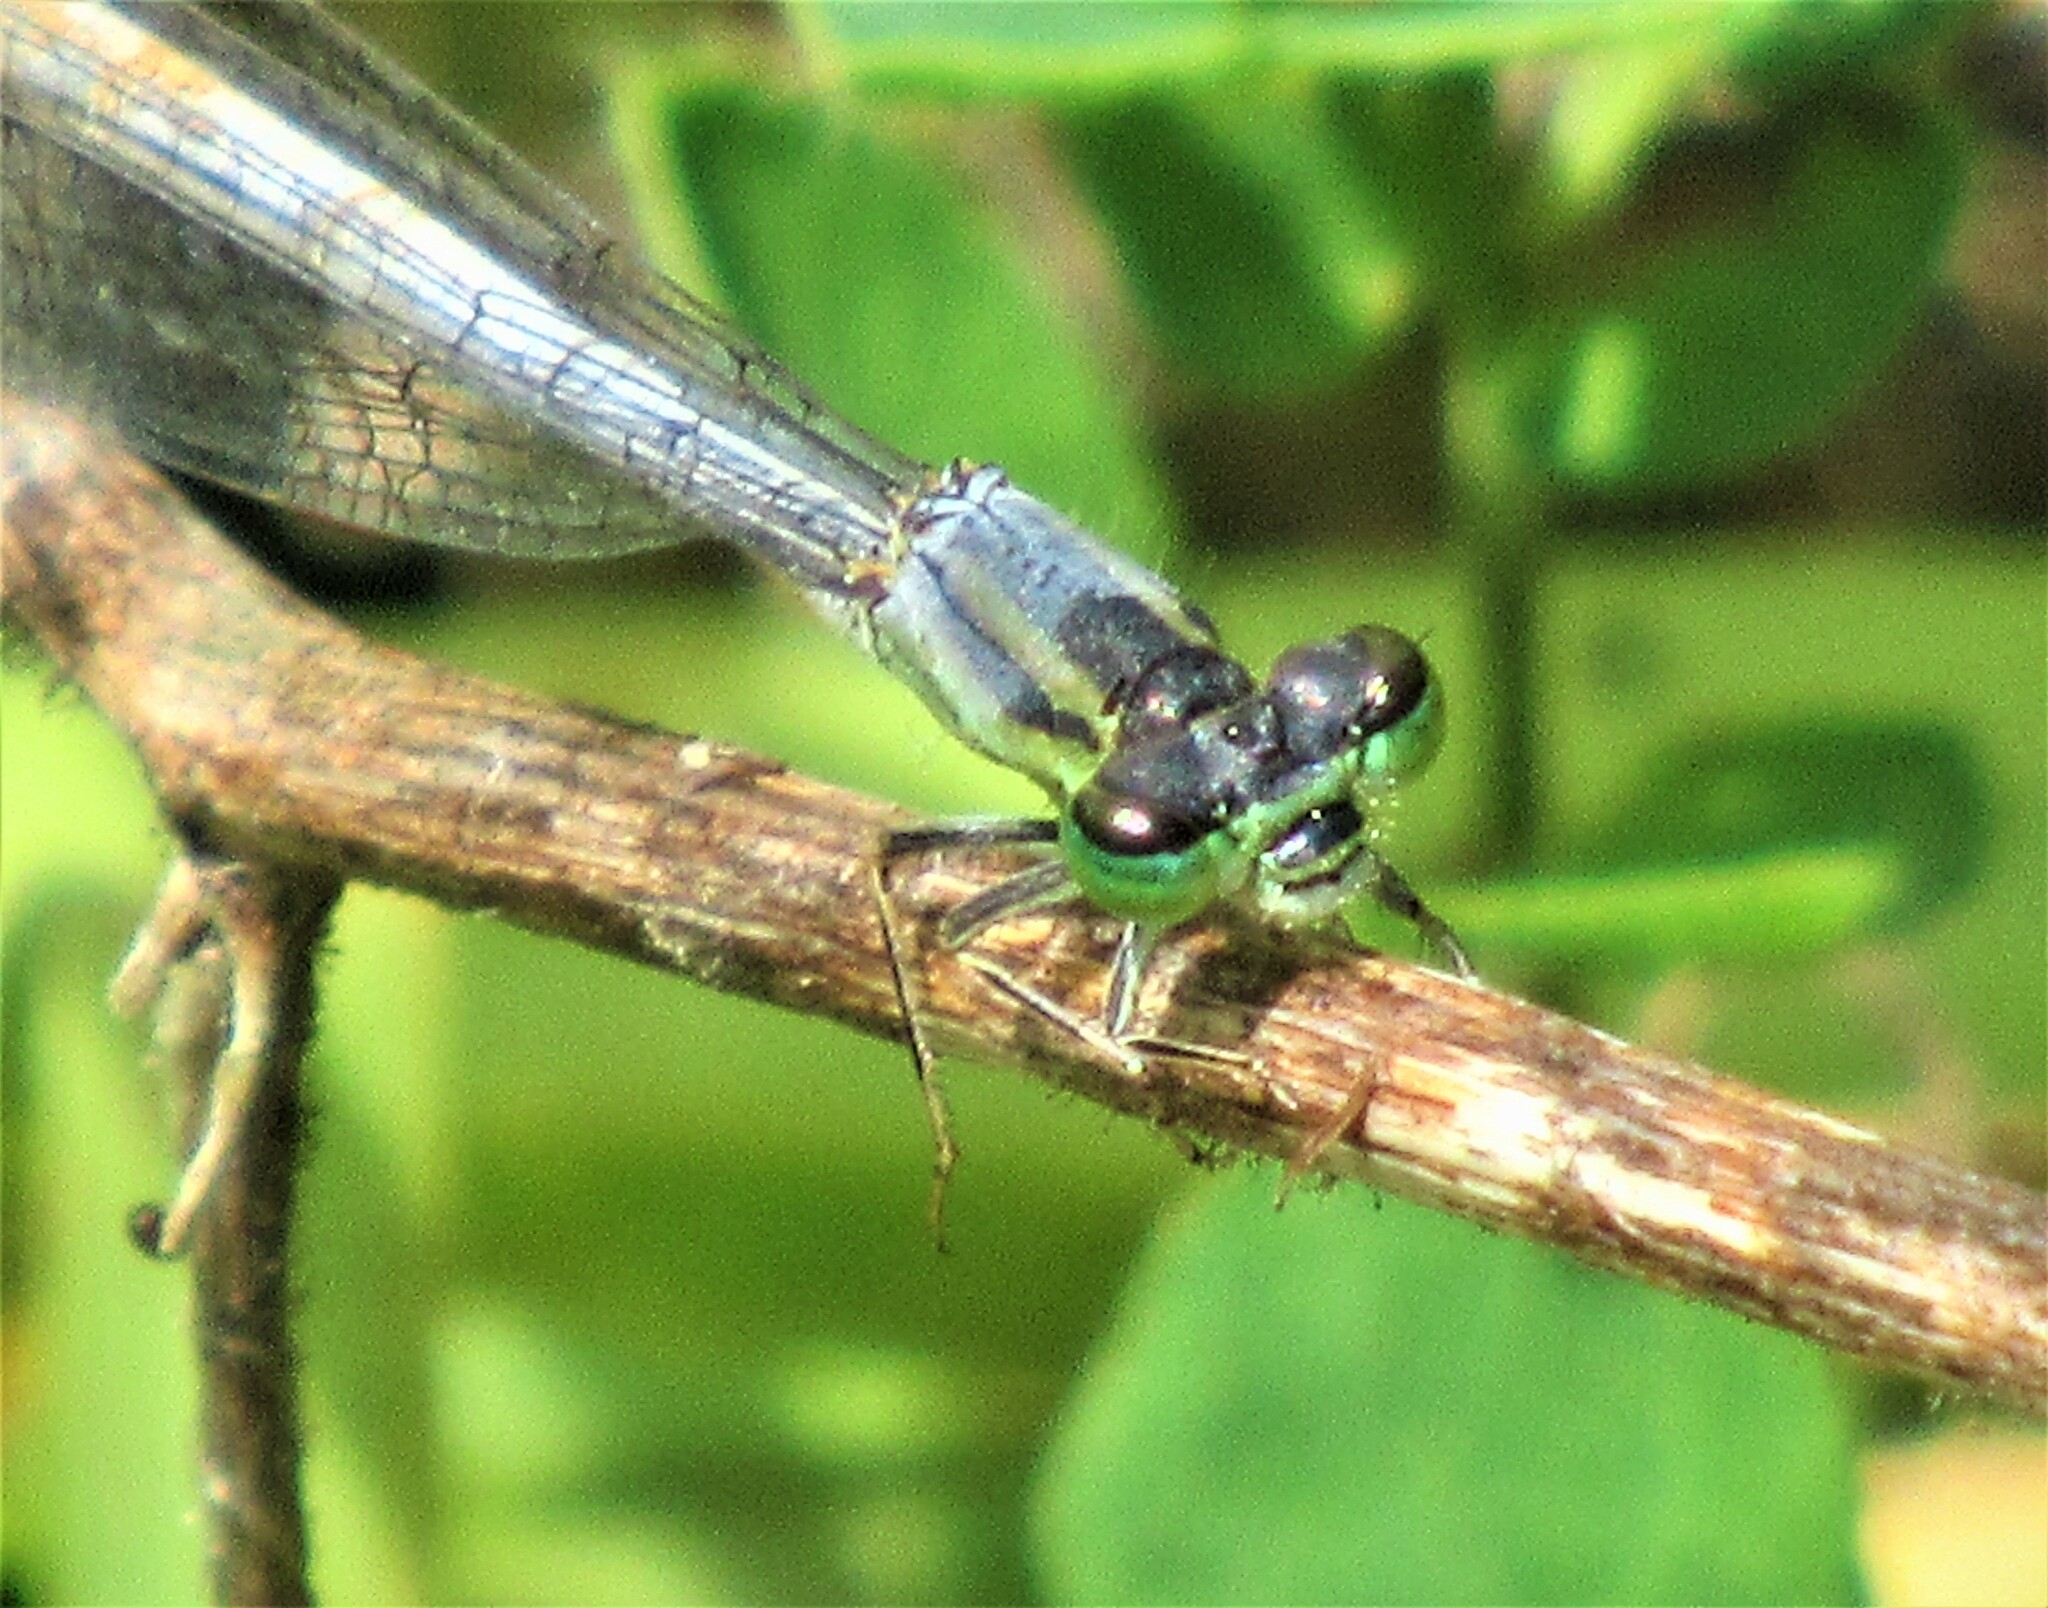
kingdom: Animalia
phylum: Arthropoda
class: Insecta
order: Odonata
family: Coenagrionidae
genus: Ischnura
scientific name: Ischnura perparva
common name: Western forktail
